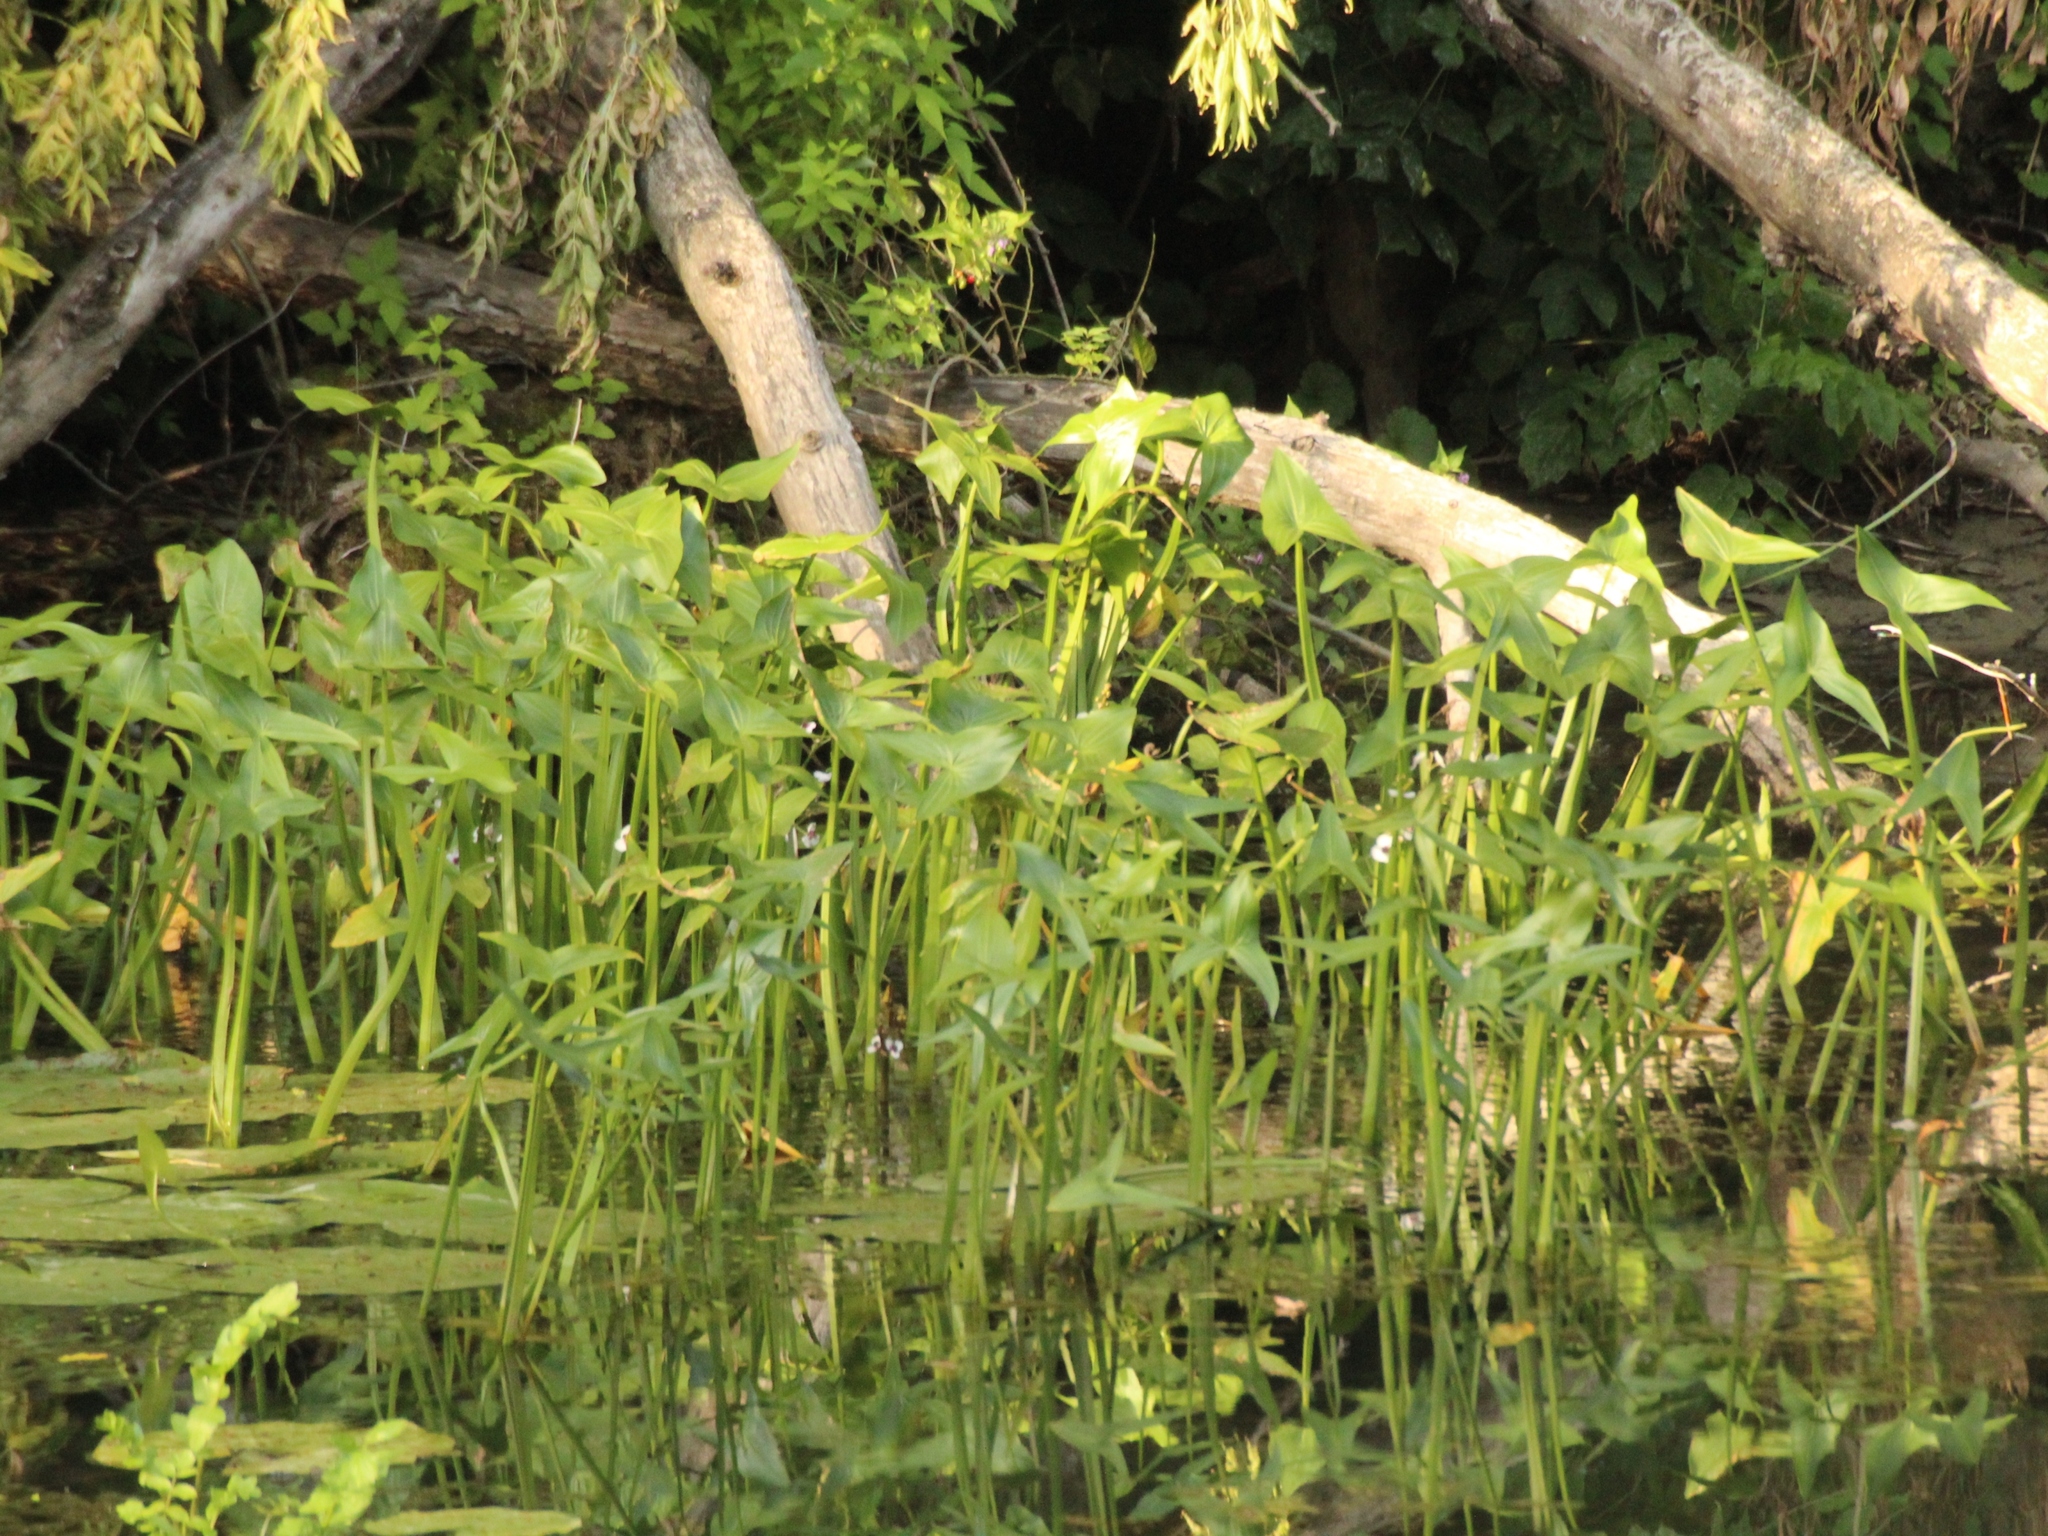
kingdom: Plantae
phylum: Tracheophyta
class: Liliopsida
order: Alismatales
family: Alismataceae
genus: Sagittaria
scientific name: Sagittaria sagittifolia
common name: Arrowhead
